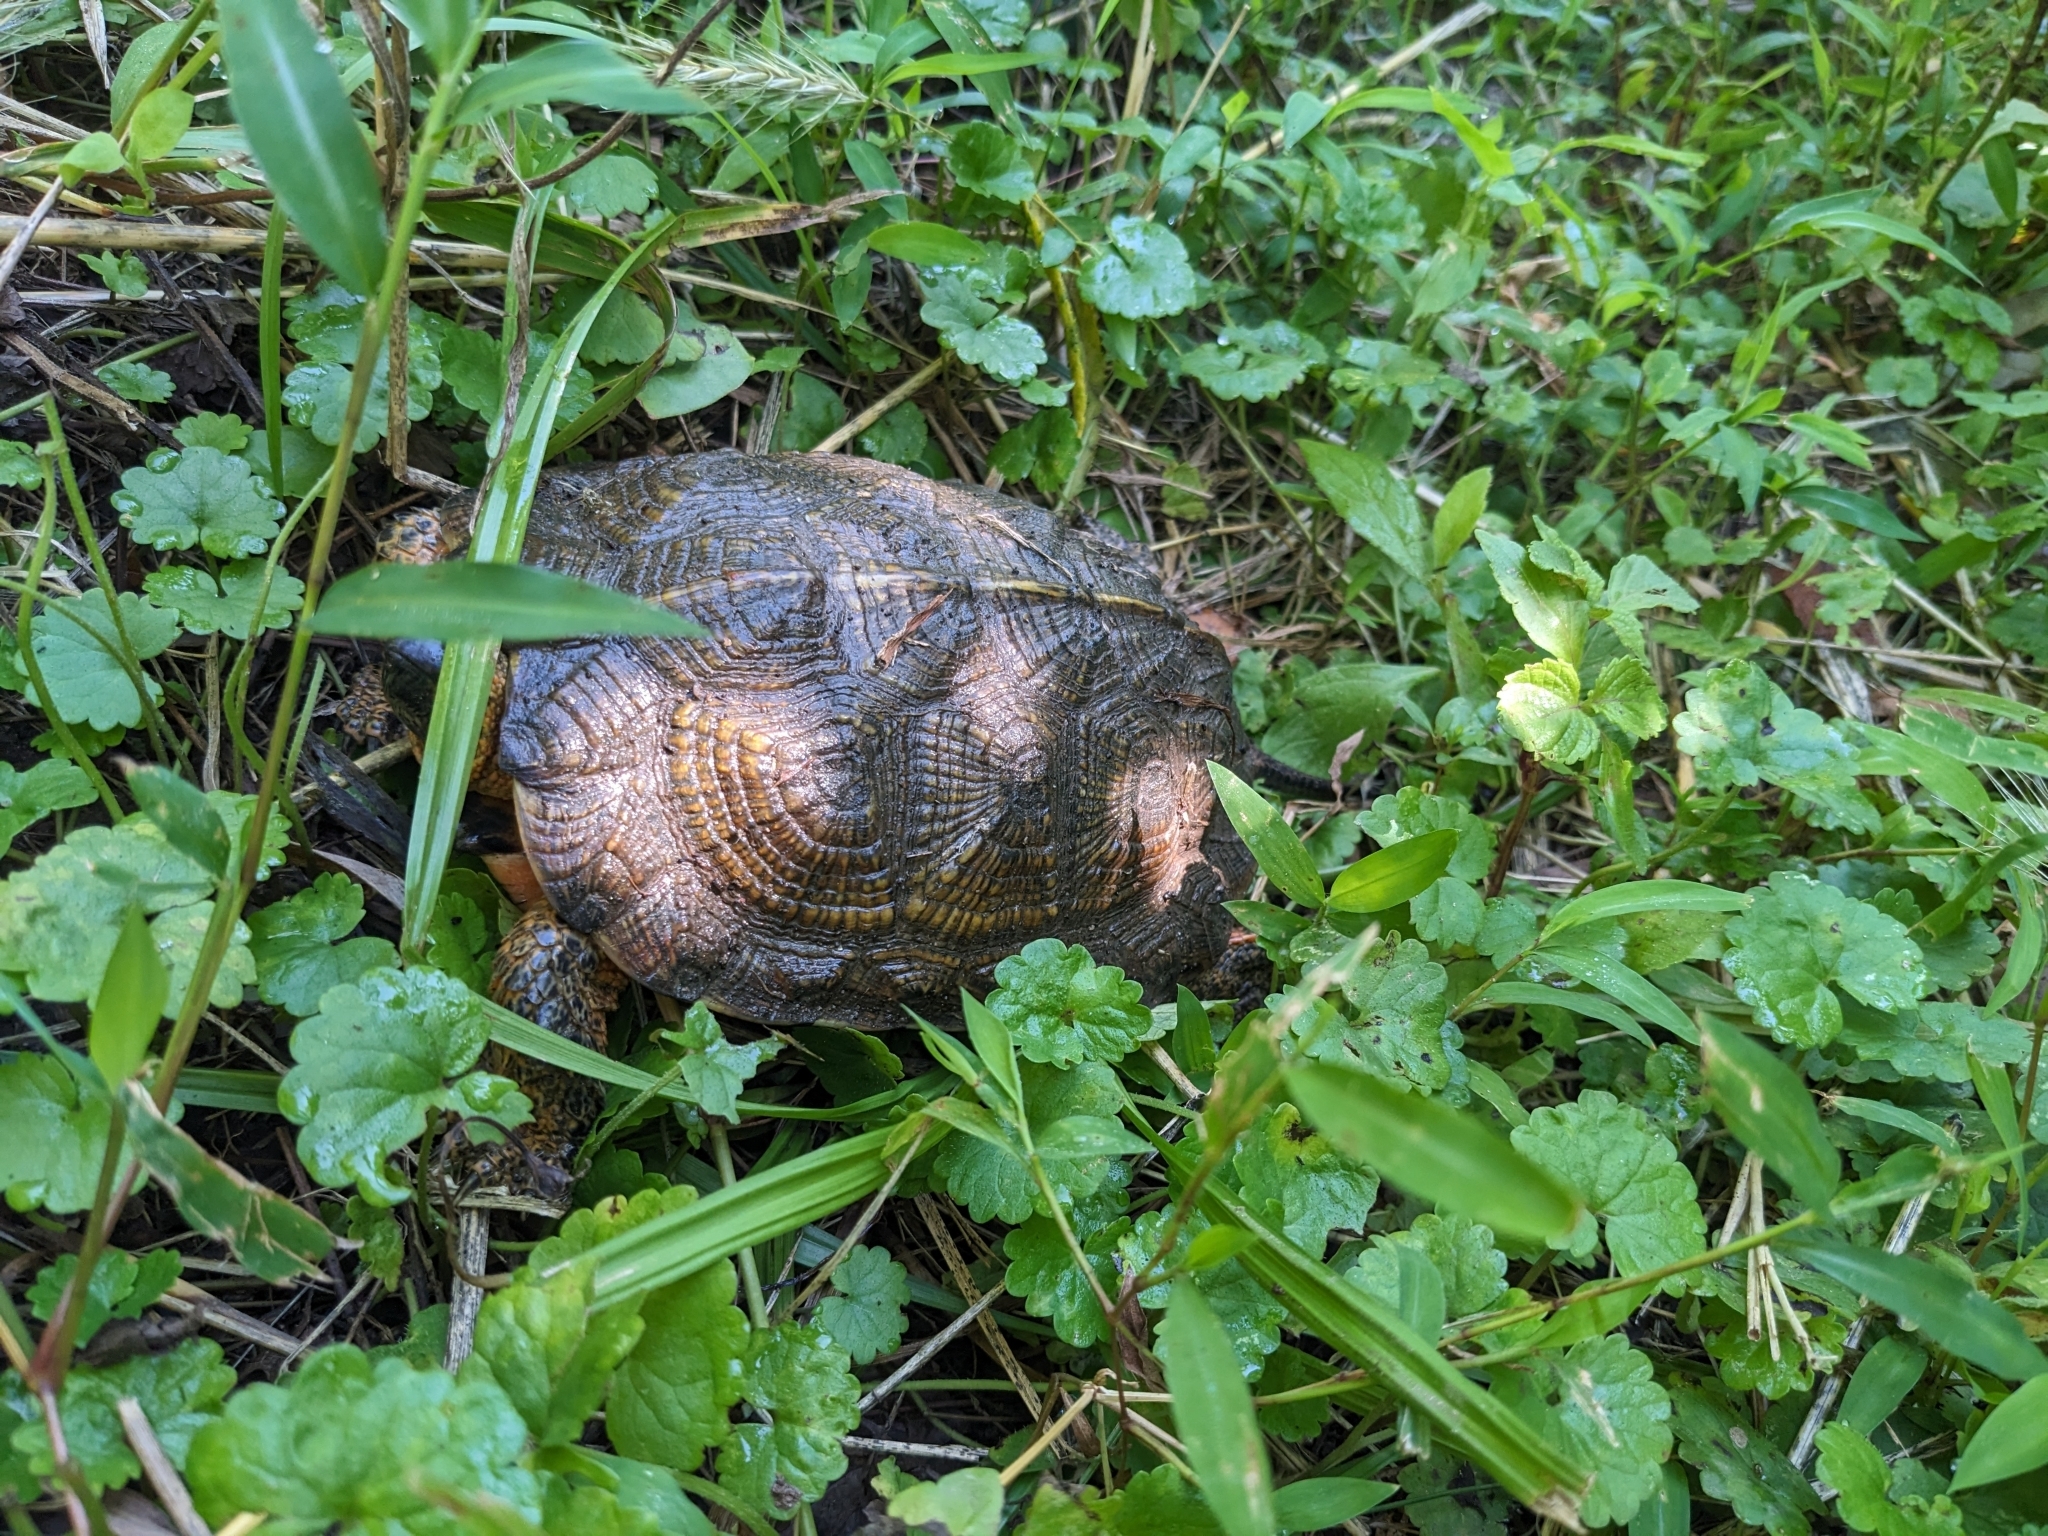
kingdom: Animalia
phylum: Chordata
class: Testudines
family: Emydidae
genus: Glyptemys
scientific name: Glyptemys insculpta
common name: Wood turtle
